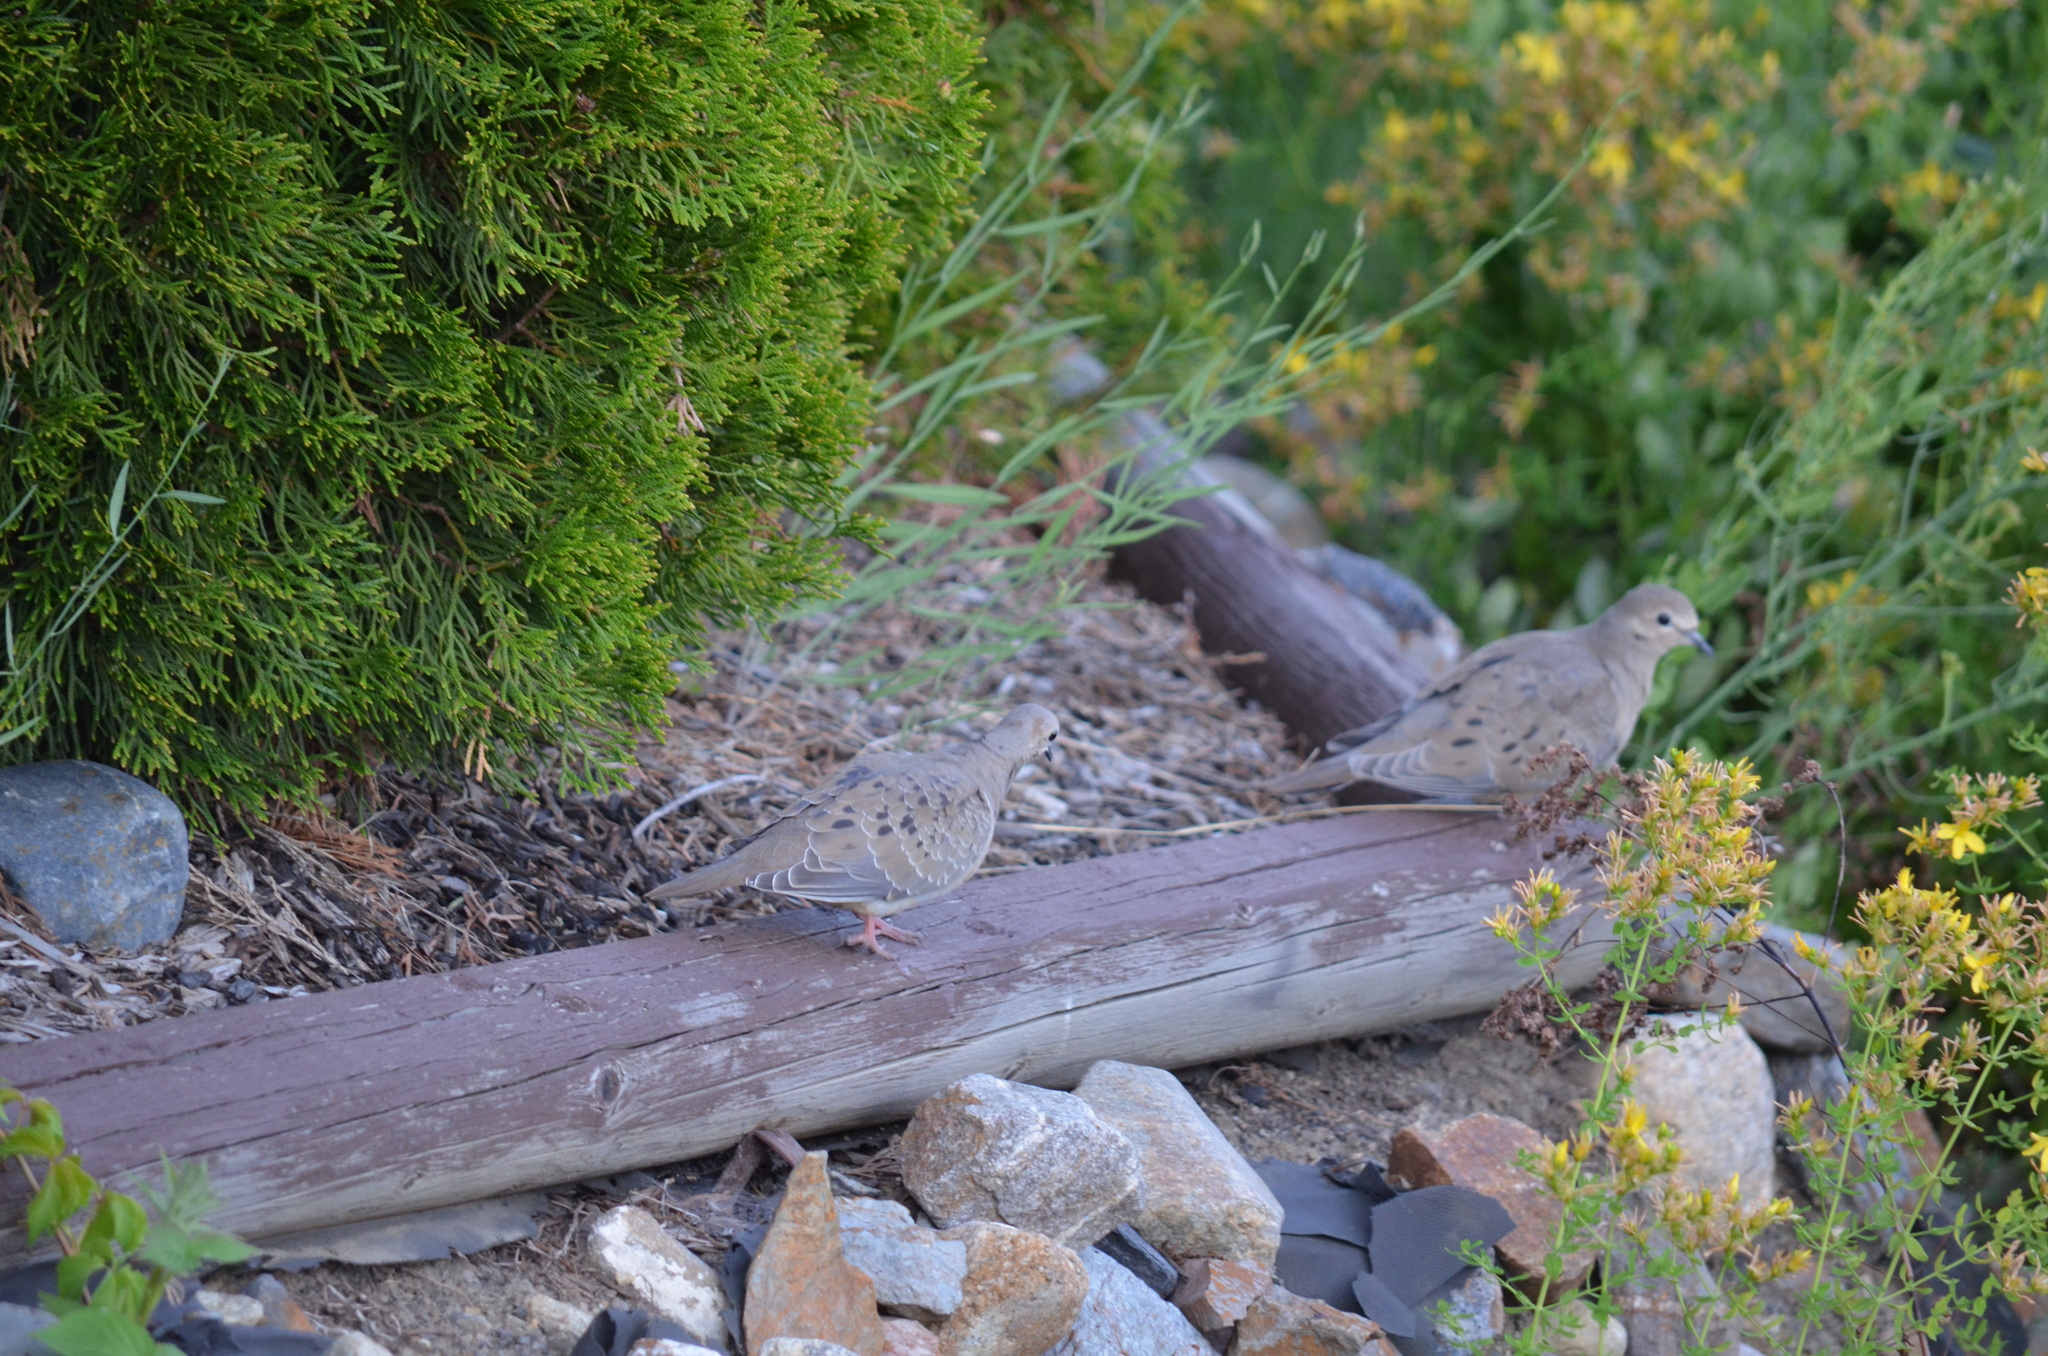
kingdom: Animalia
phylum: Chordata
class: Aves
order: Columbiformes
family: Columbidae
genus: Zenaida
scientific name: Zenaida macroura
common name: Mourning dove
